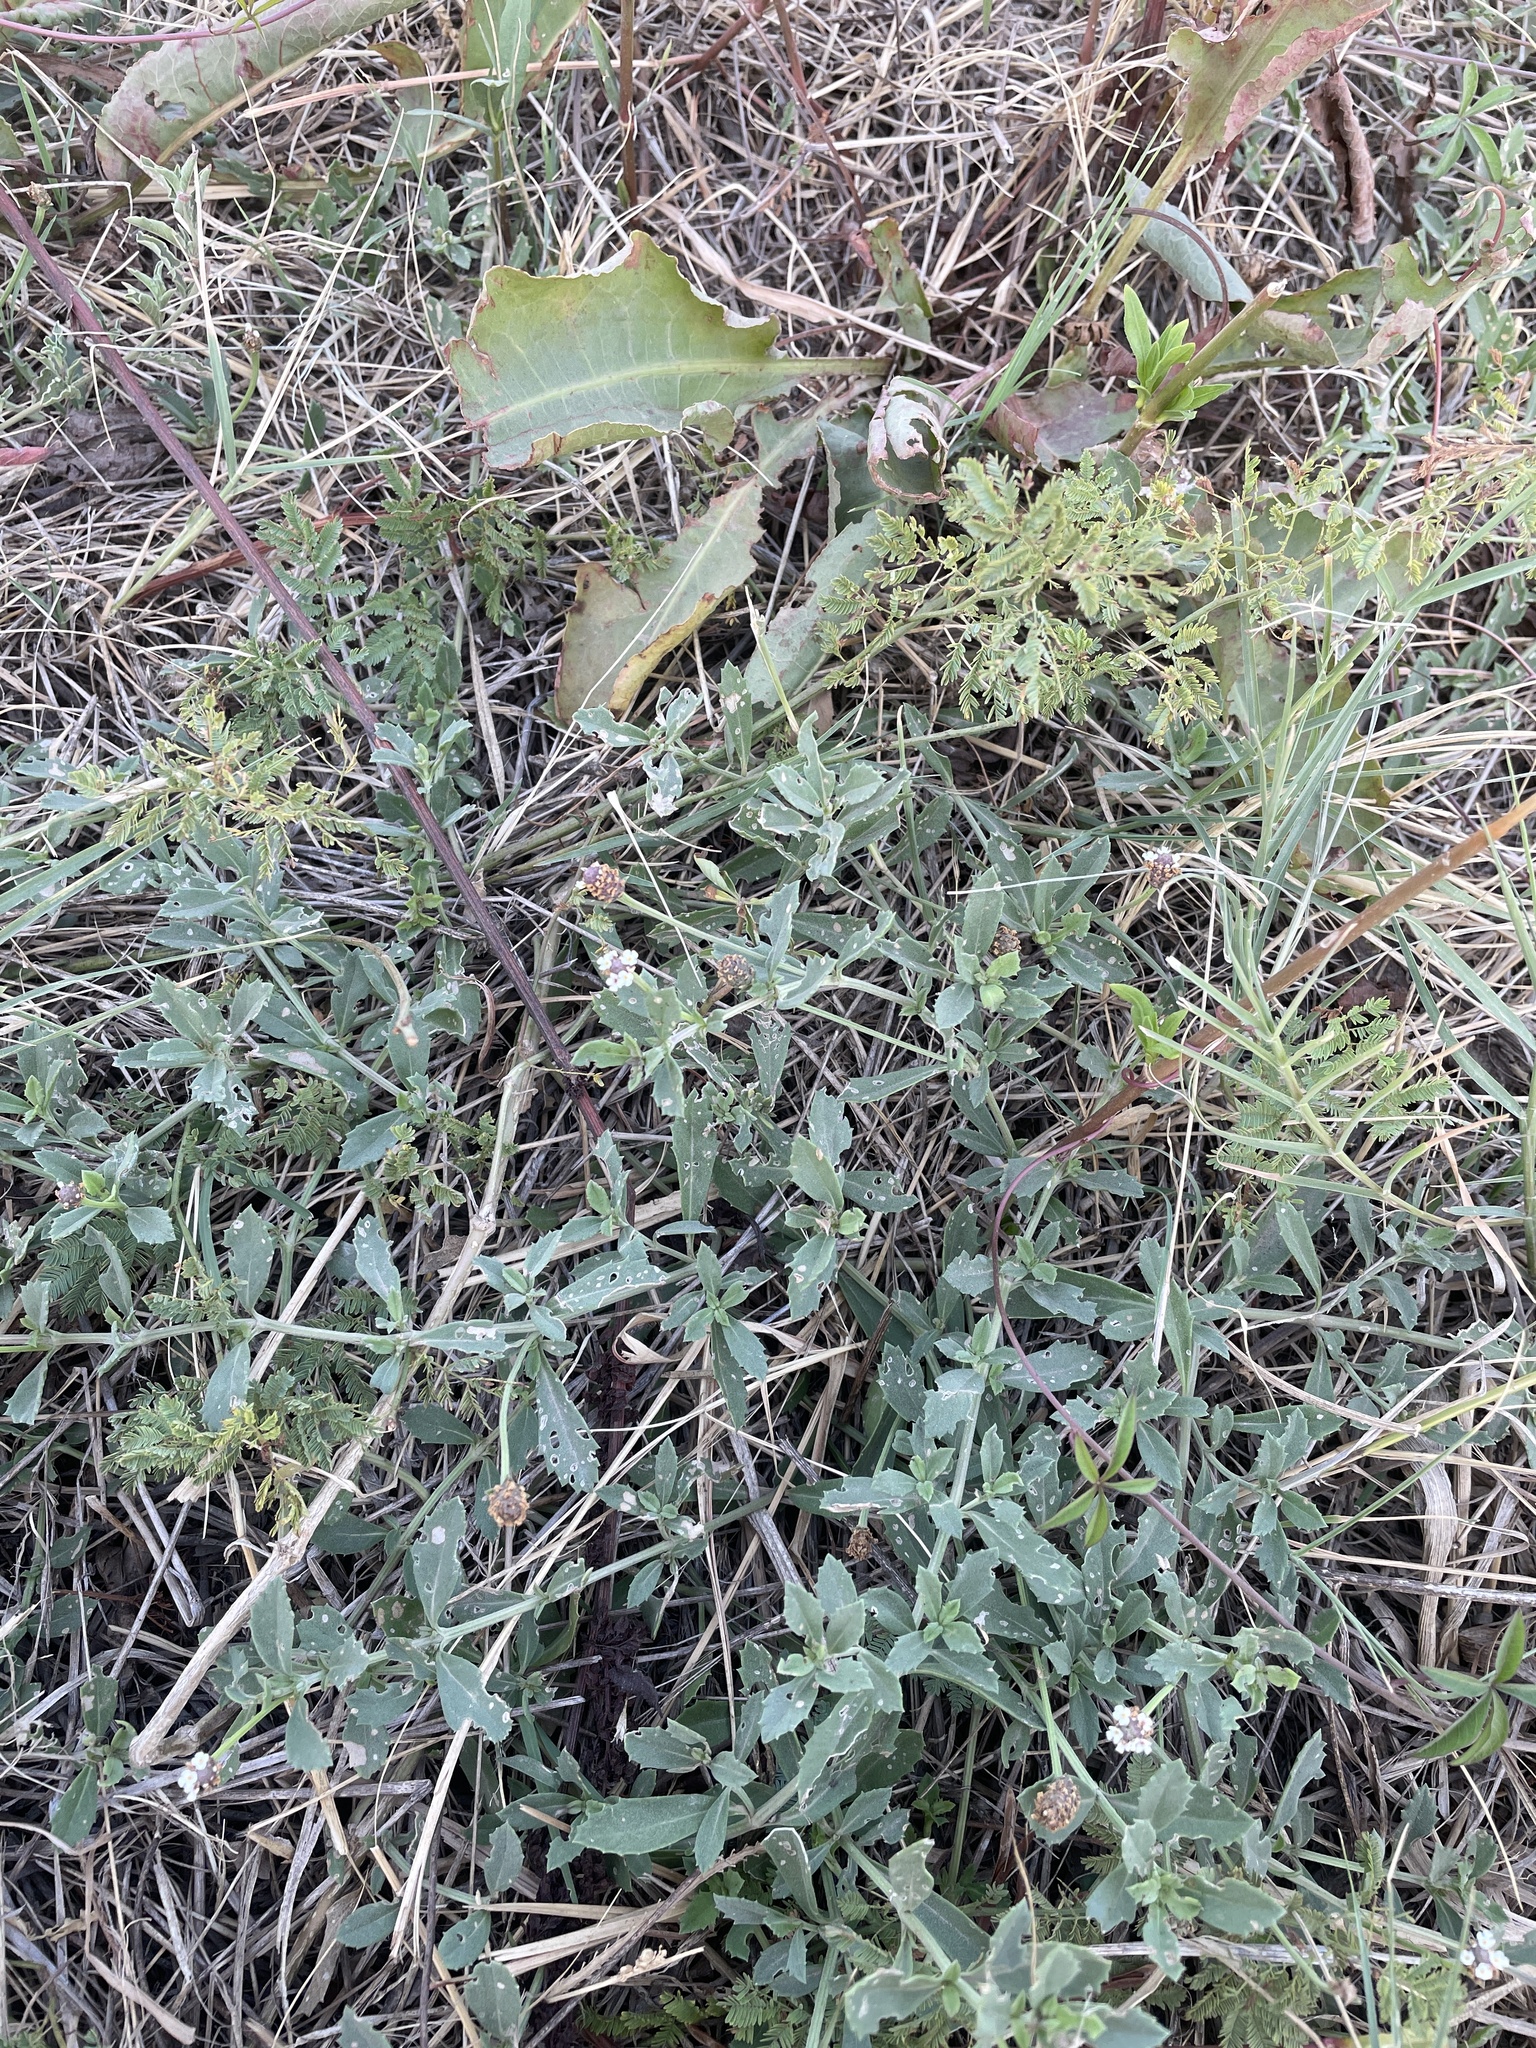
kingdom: Plantae
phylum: Tracheophyta
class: Magnoliopsida
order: Lamiales
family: Verbenaceae
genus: Phyla
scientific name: Phyla nodiflora
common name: Frogfruit
